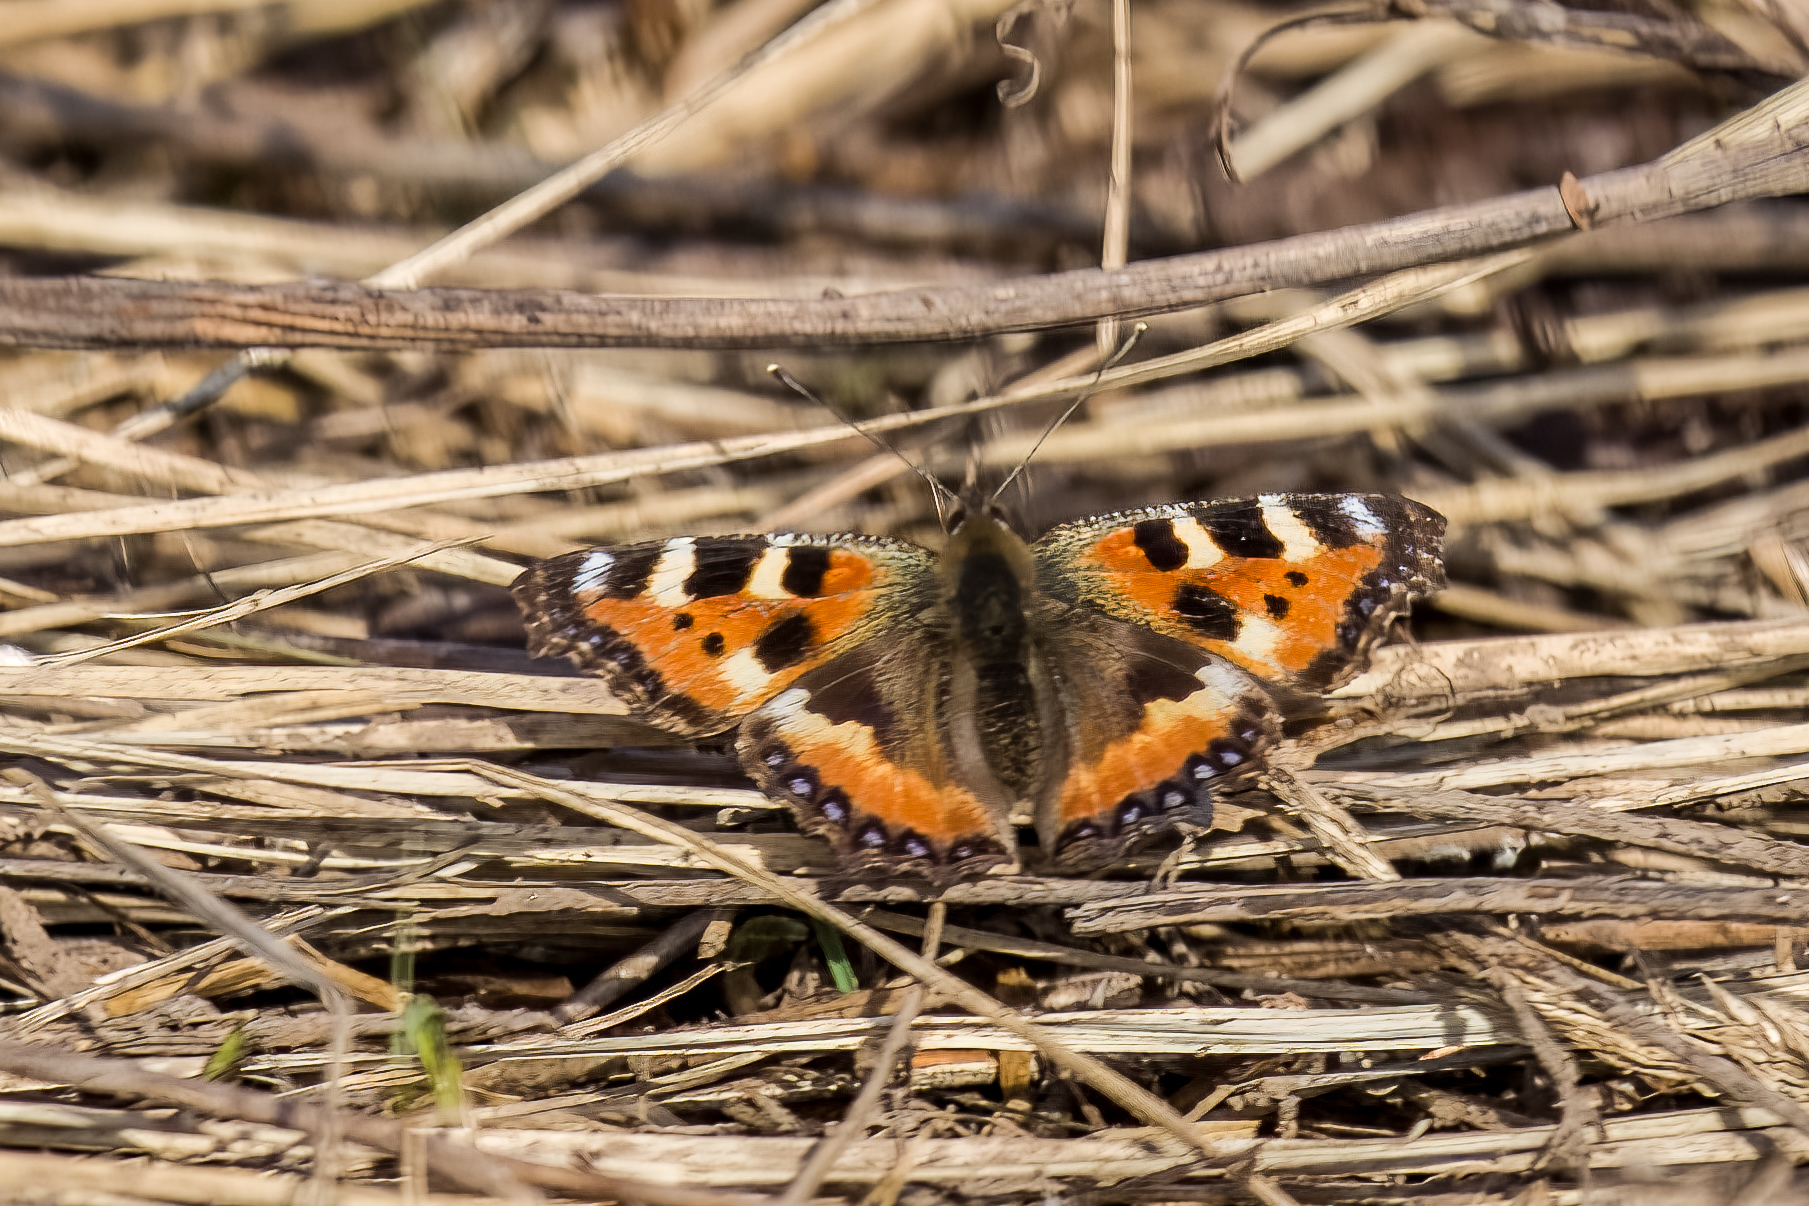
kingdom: Animalia
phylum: Arthropoda
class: Insecta
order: Lepidoptera
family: Nymphalidae
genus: Aglais
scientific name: Aglais urticae
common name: Small tortoiseshell
